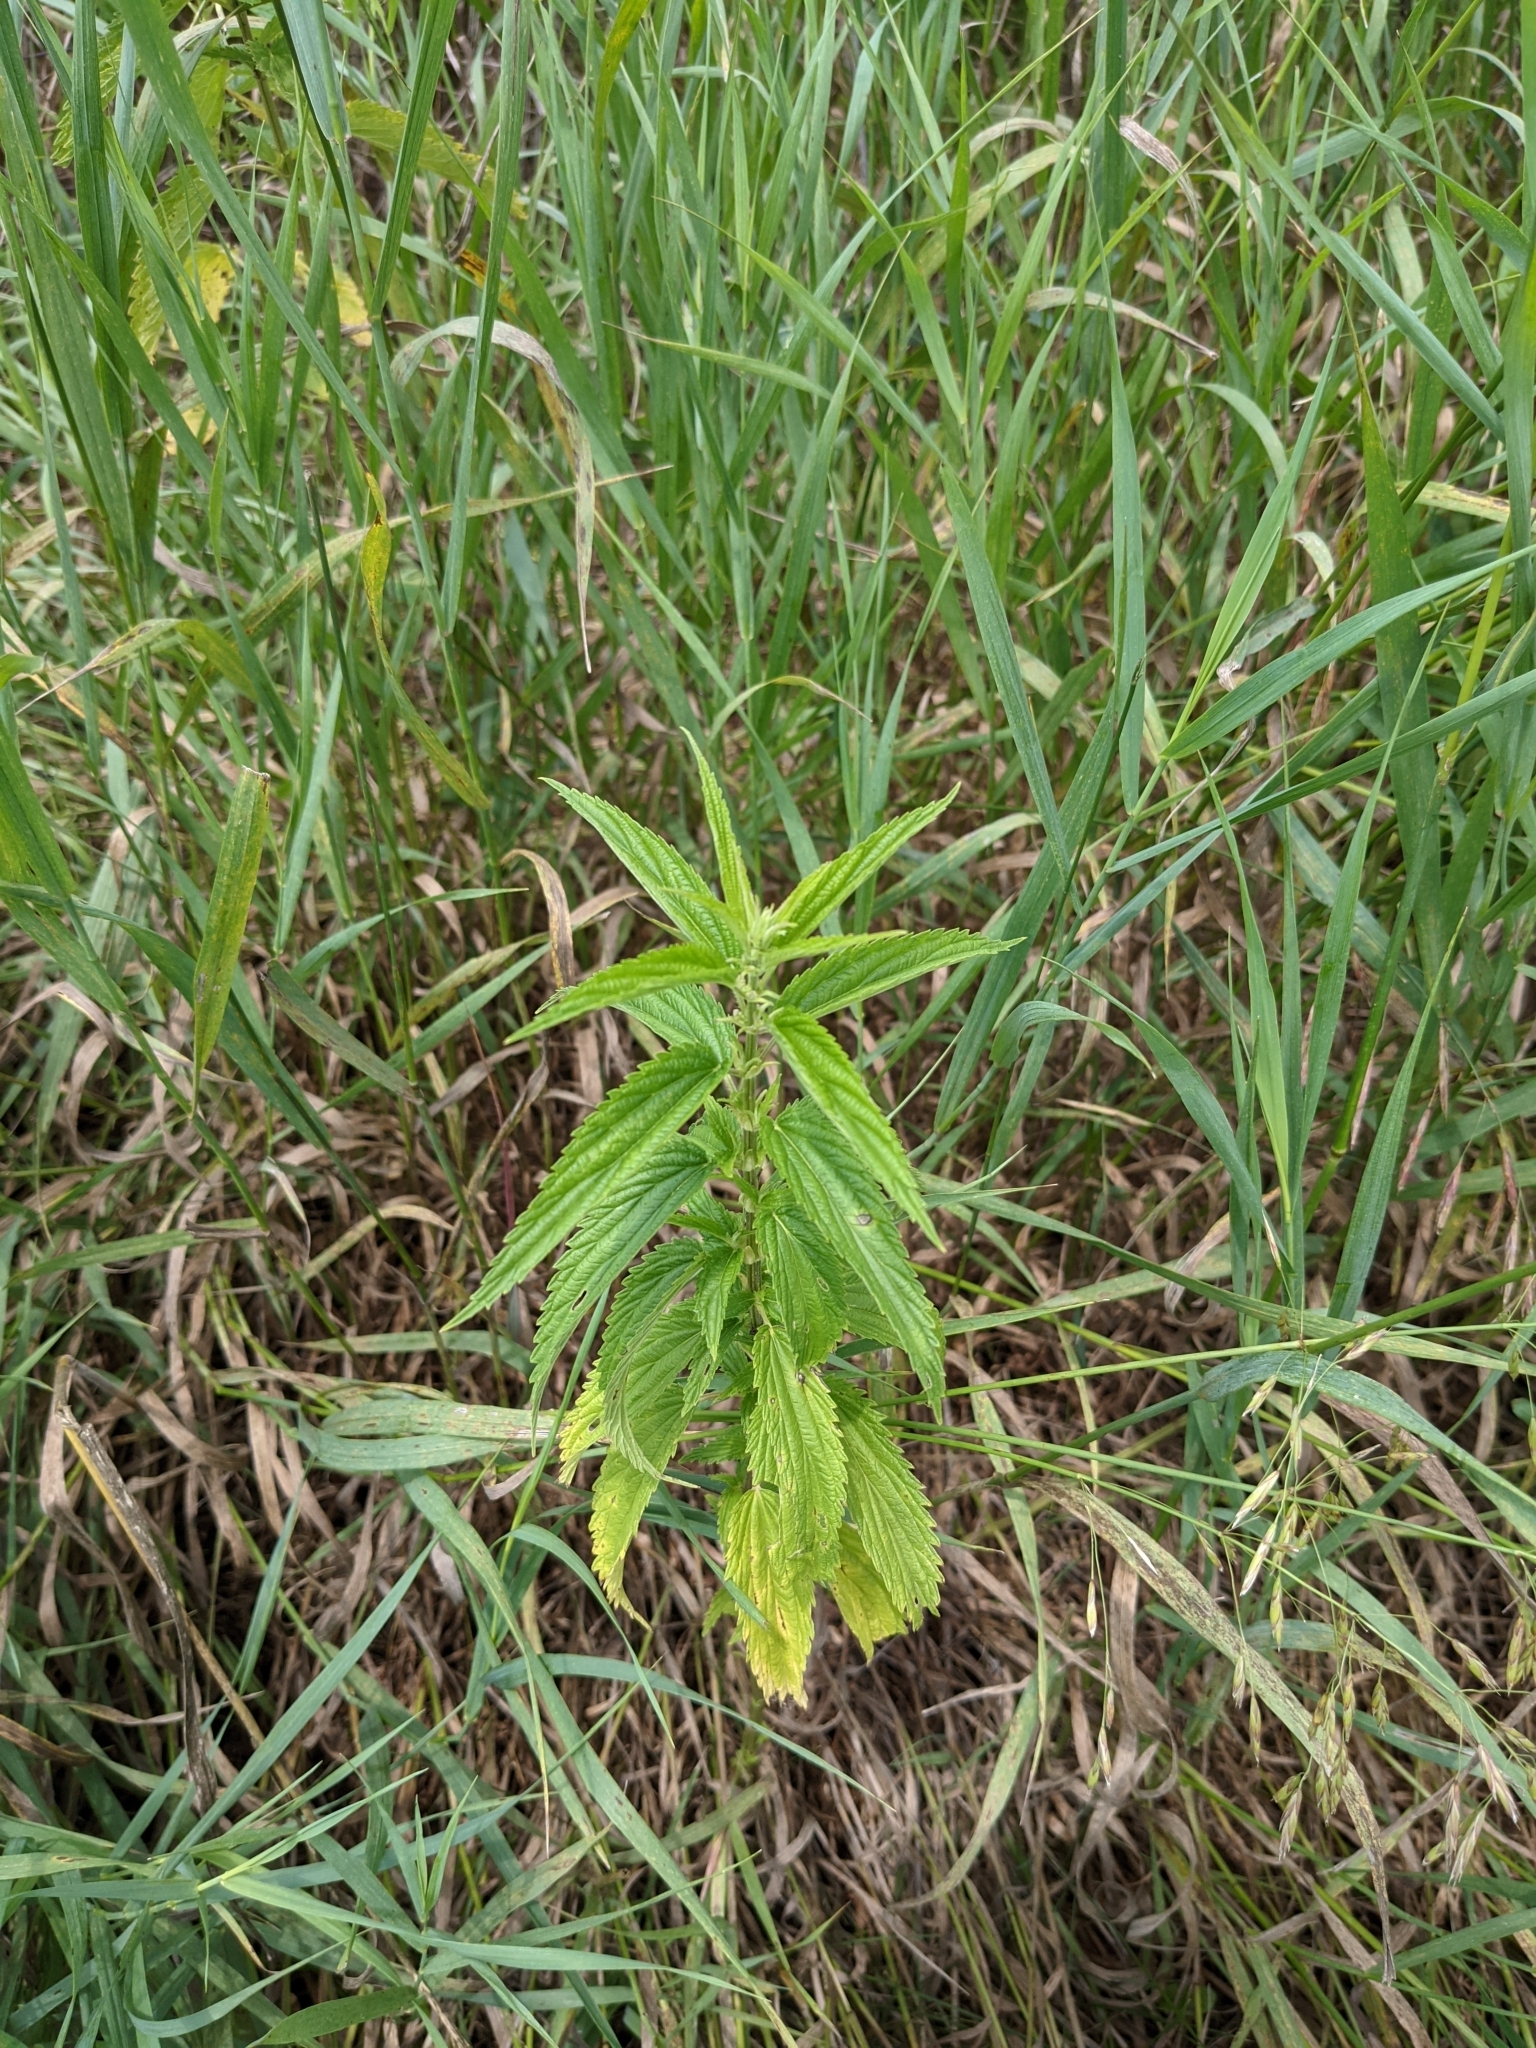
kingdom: Plantae
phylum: Tracheophyta
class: Magnoliopsida
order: Rosales
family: Urticaceae
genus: Urtica
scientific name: Urtica dioica
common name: Common nettle
